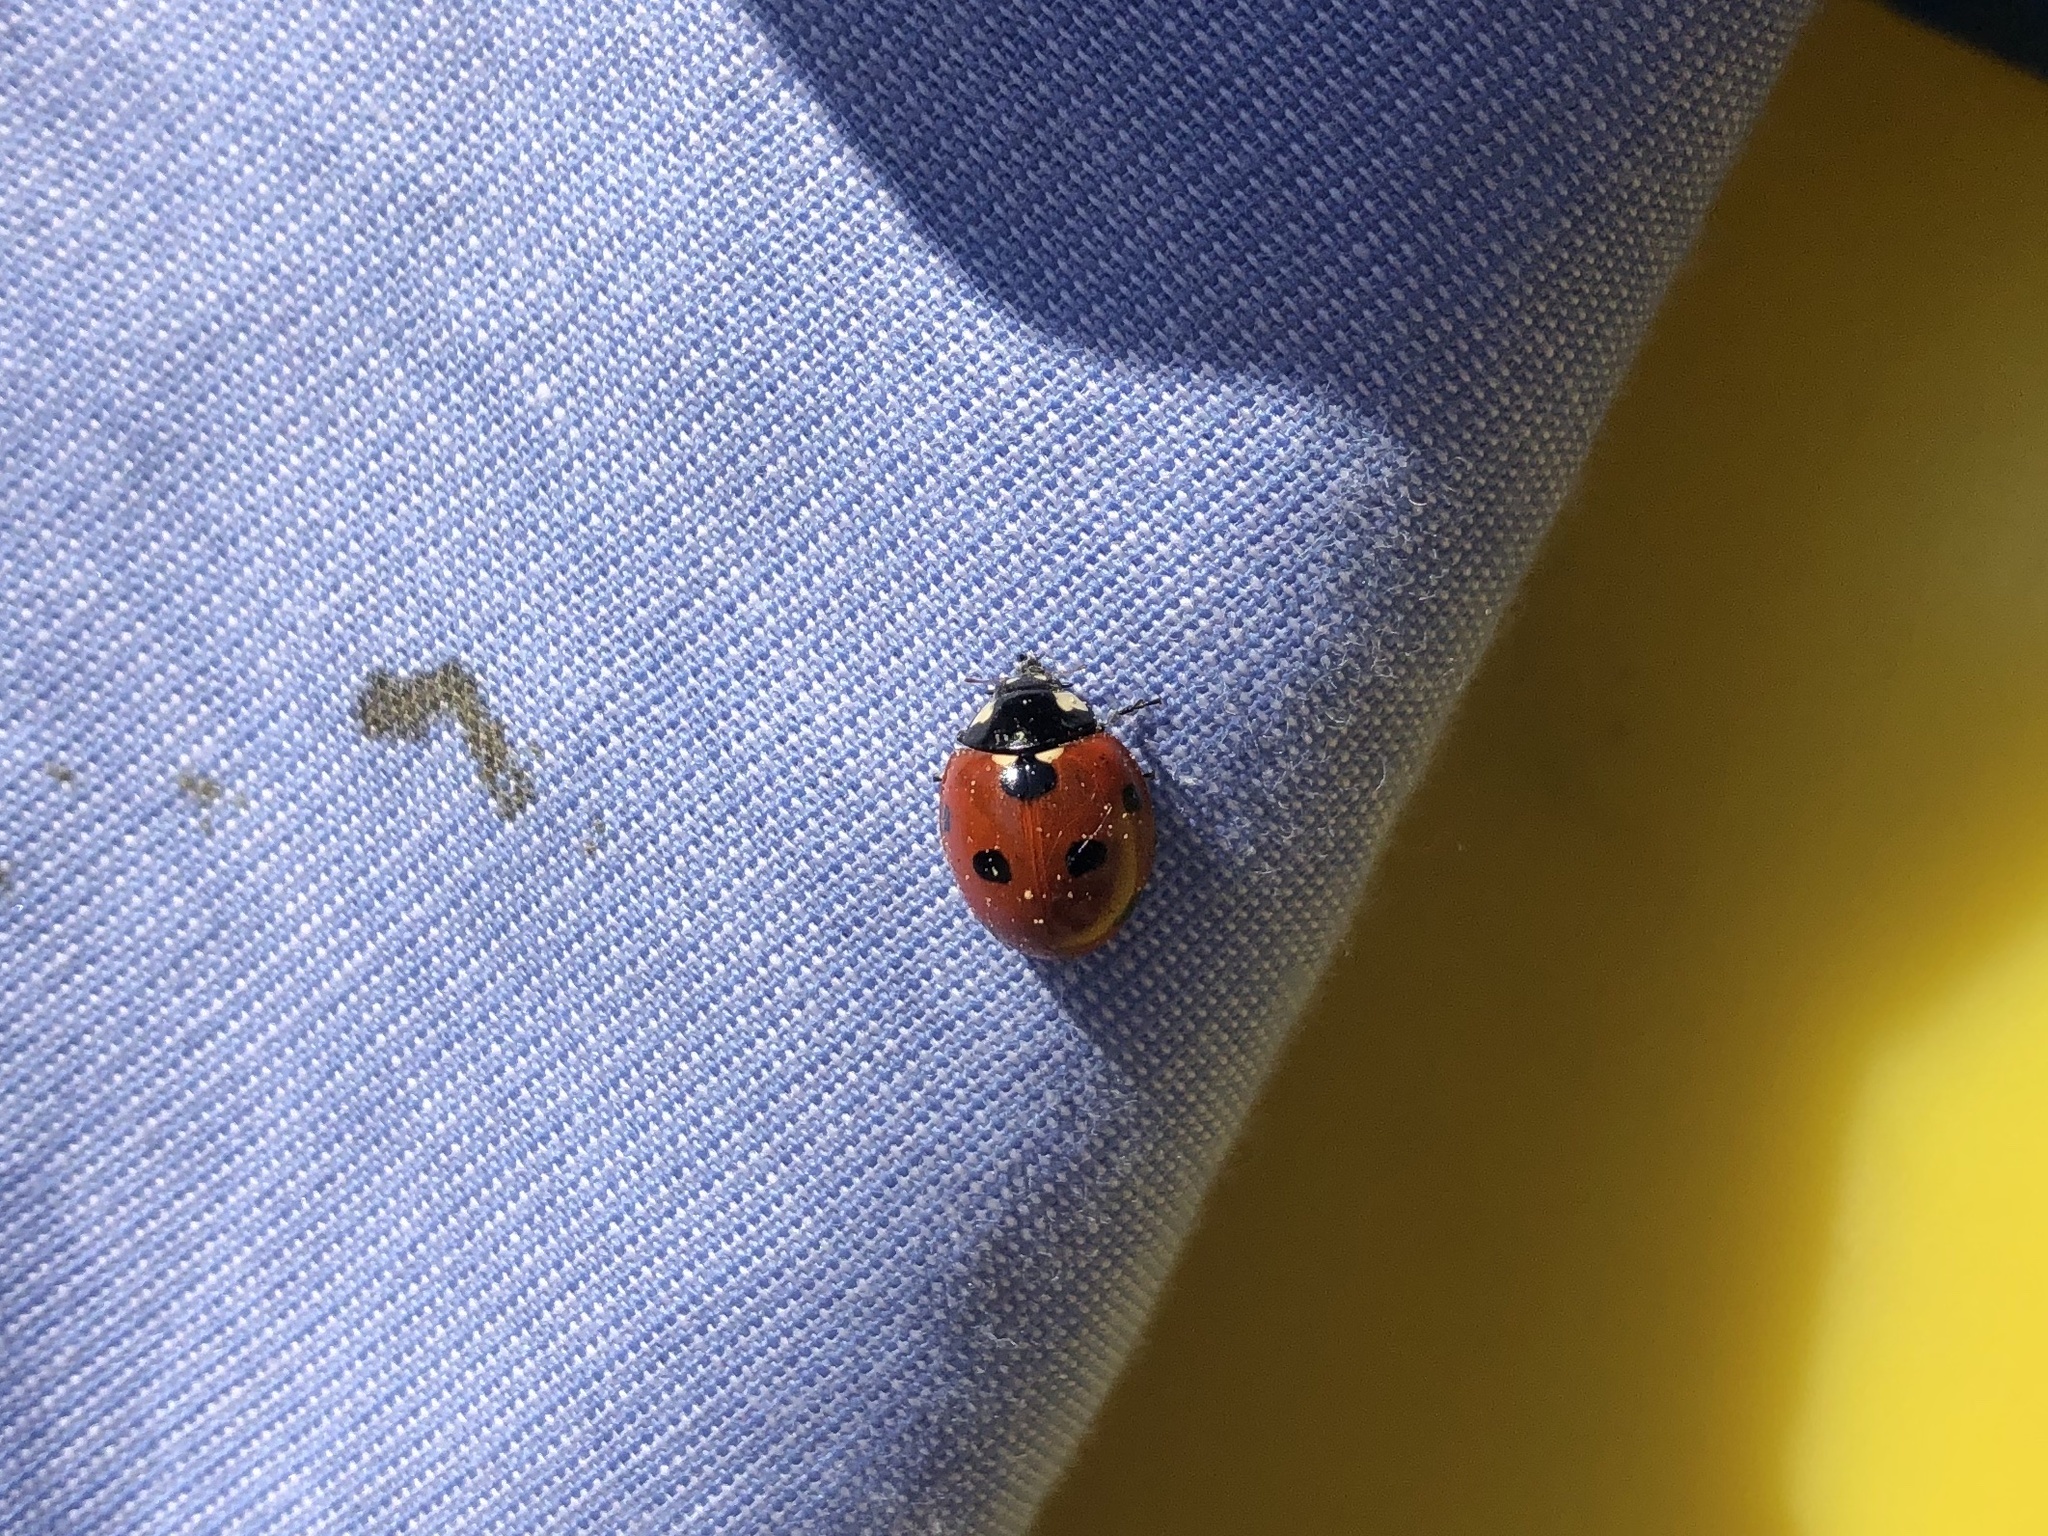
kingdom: Animalia
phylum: Arthropoda
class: Insecta
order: Coleoptera
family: Coccinellidae
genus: Coccinella
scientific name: Coccinella septempunctata
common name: Sevenspotted lady beetle
